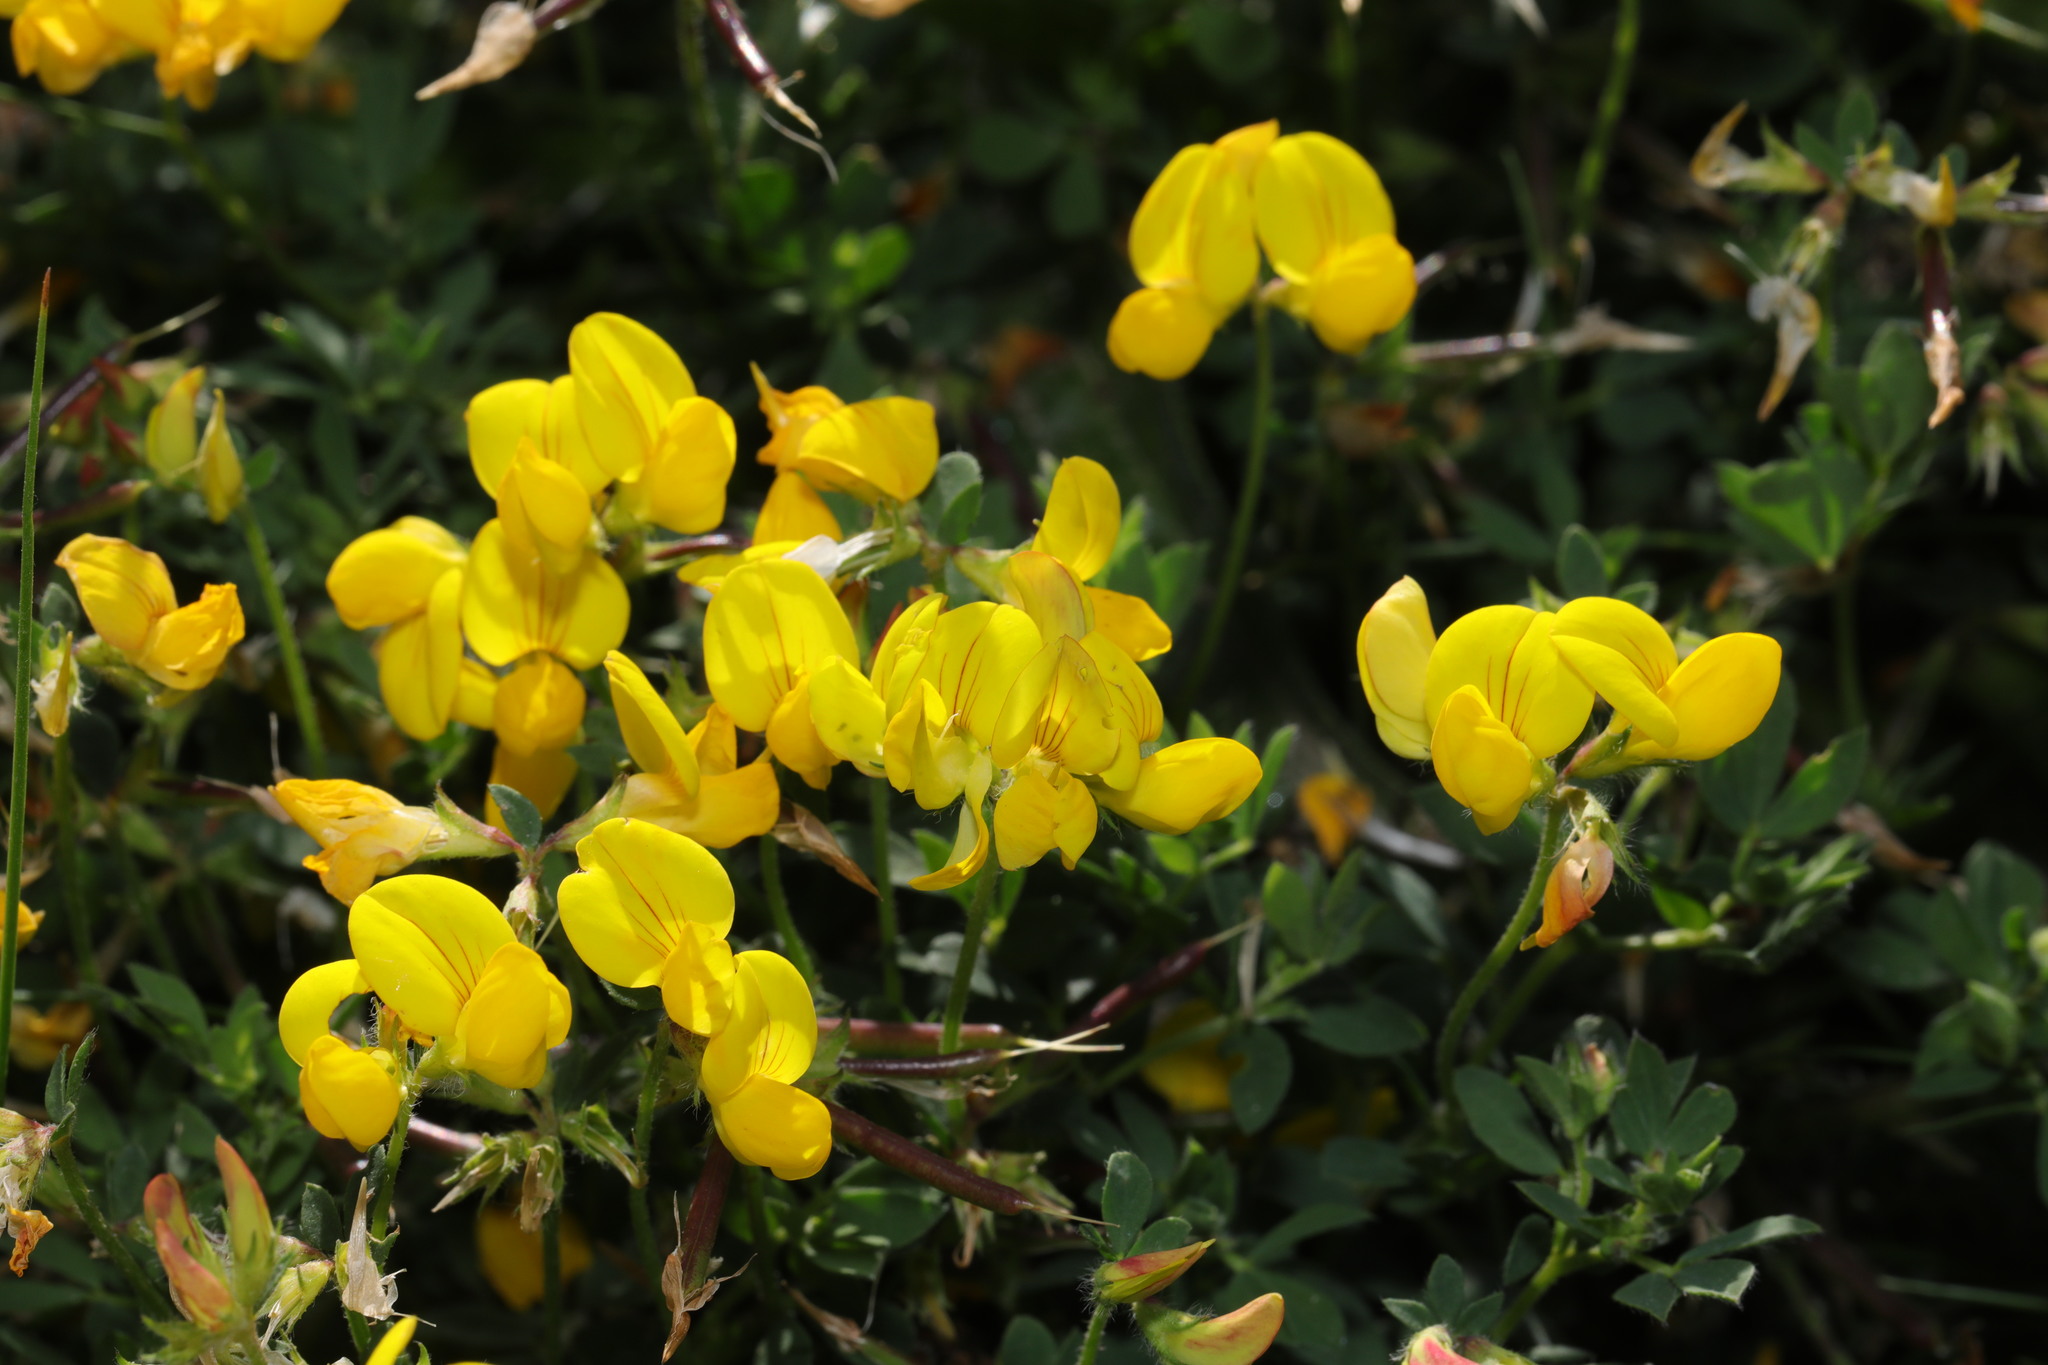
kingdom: Plantae
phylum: Tracheophyta
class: Magnoliopsida
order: Fabales
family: Fabaceae
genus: Lotus
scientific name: Lotus corniculatus
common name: Common bird's-foot-trefoil
